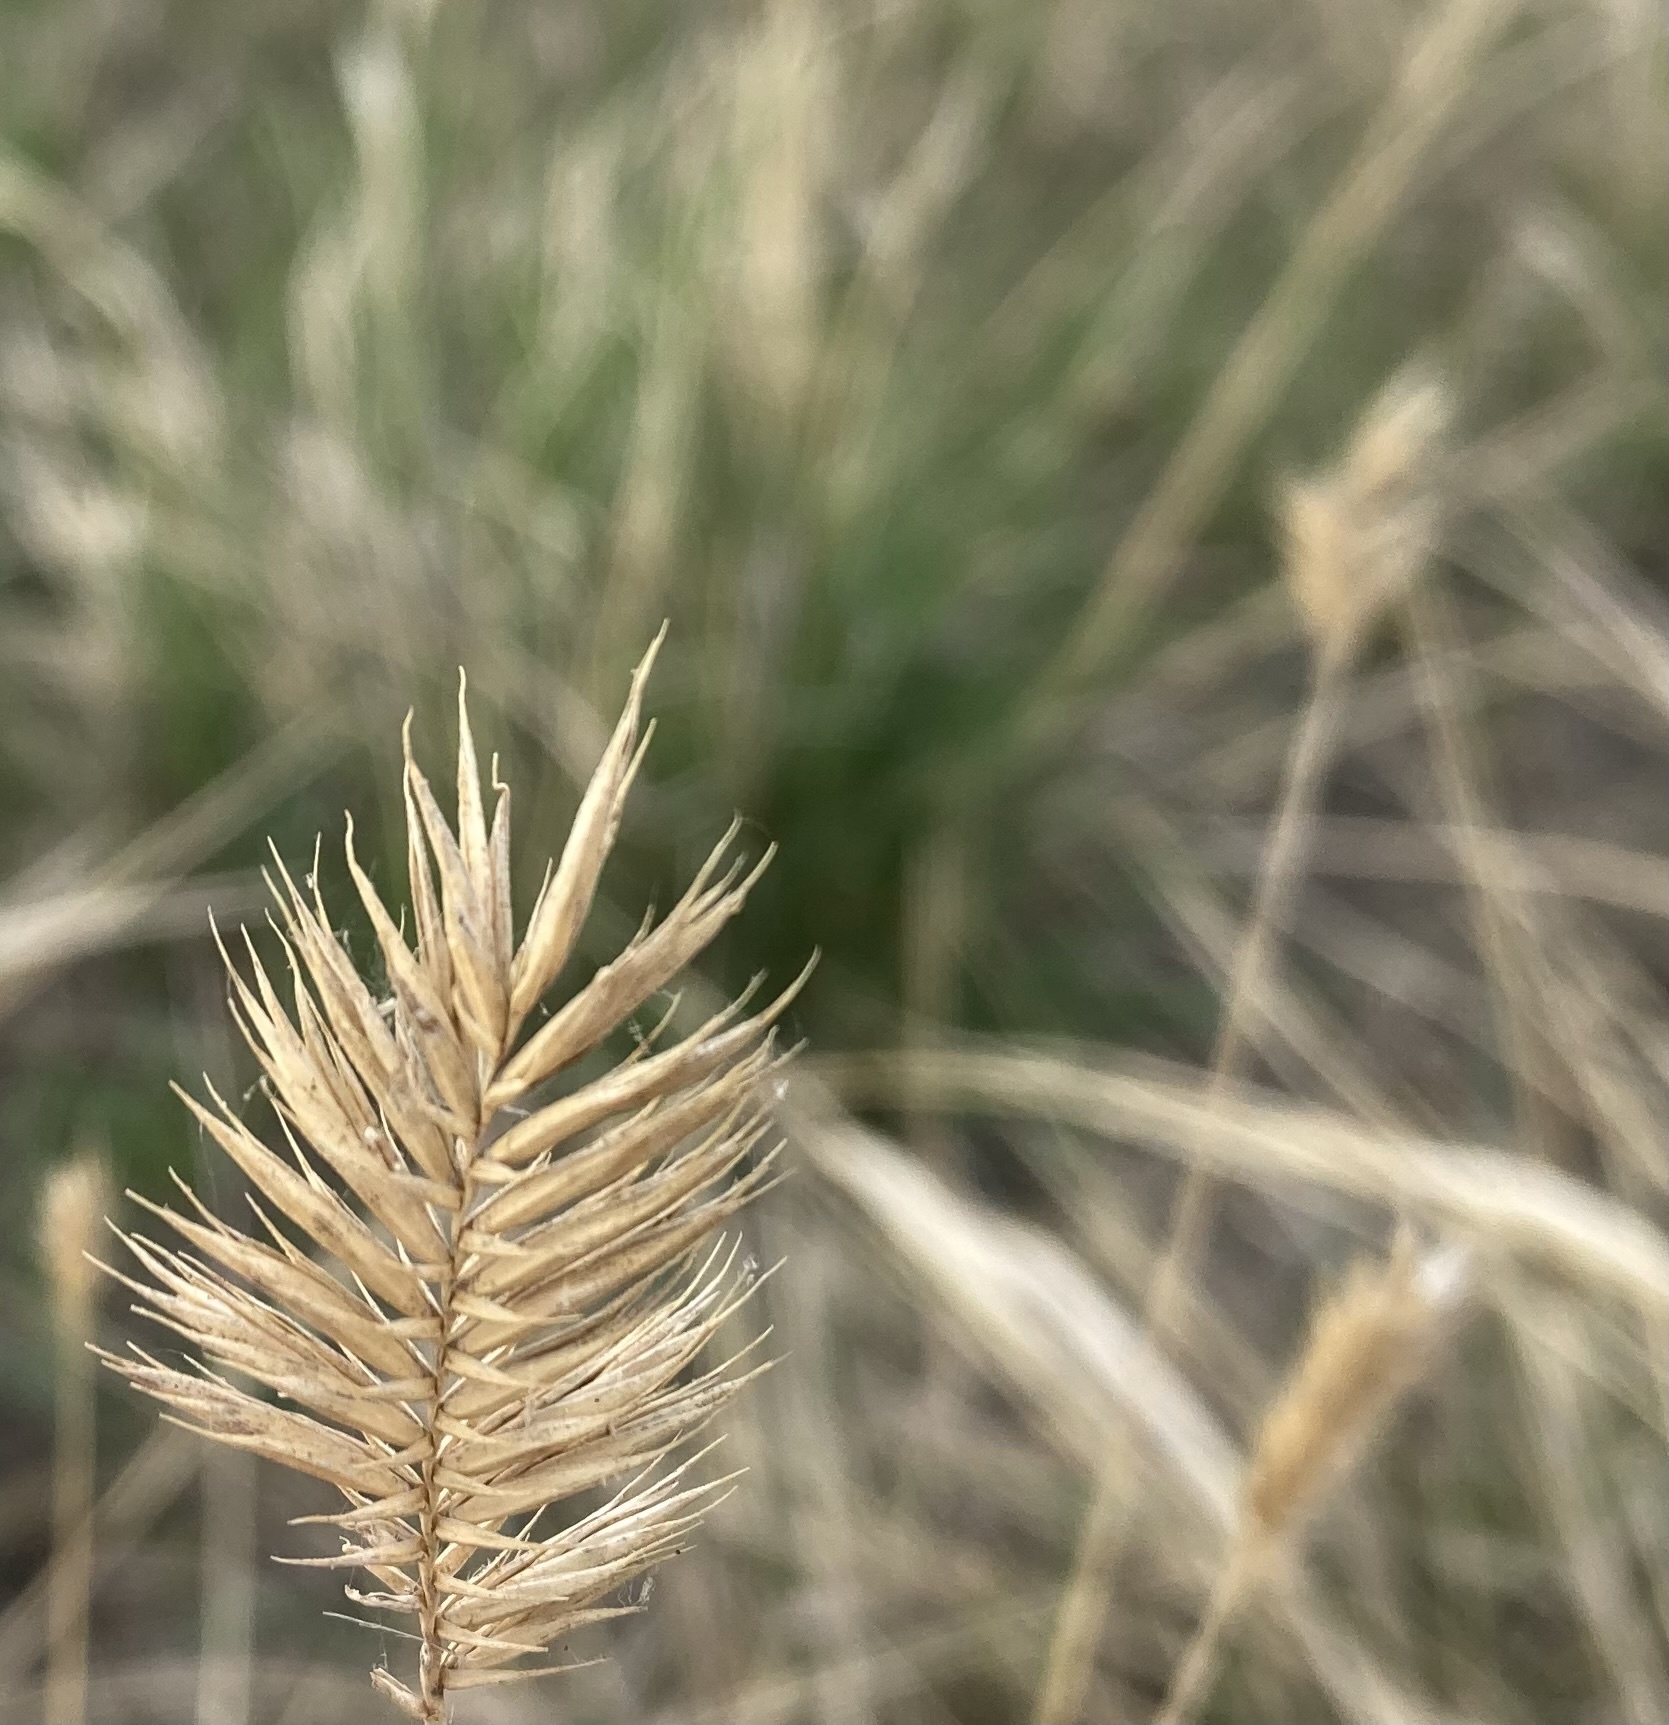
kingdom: Plantae
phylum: Tracheophyta
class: Liliopsida
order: Poales
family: Poaceae
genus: Agropyron
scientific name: Agropyron cristatum
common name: Crested wheatgrass
